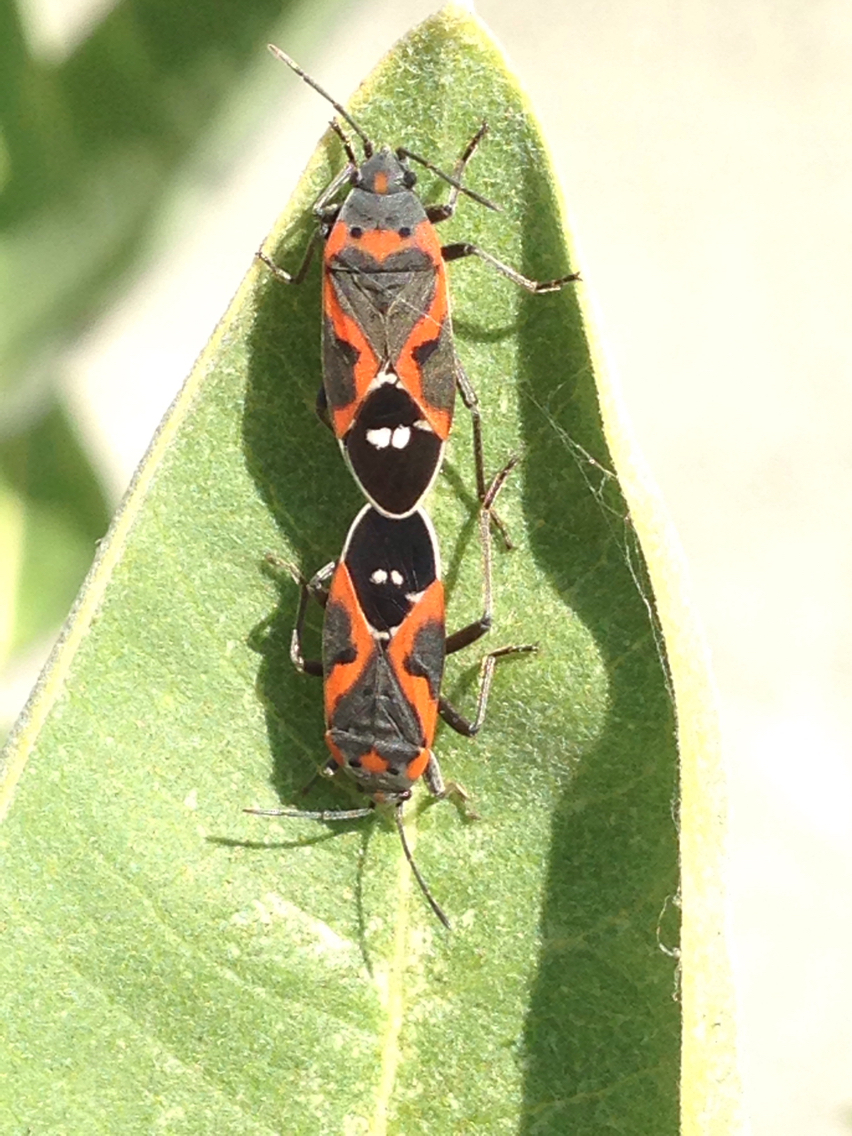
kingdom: Animalia
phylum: Arthropoda
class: Insecta
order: Hemiptera
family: Lygaeidae
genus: Lygaeus
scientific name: Lygaeus kalmii
